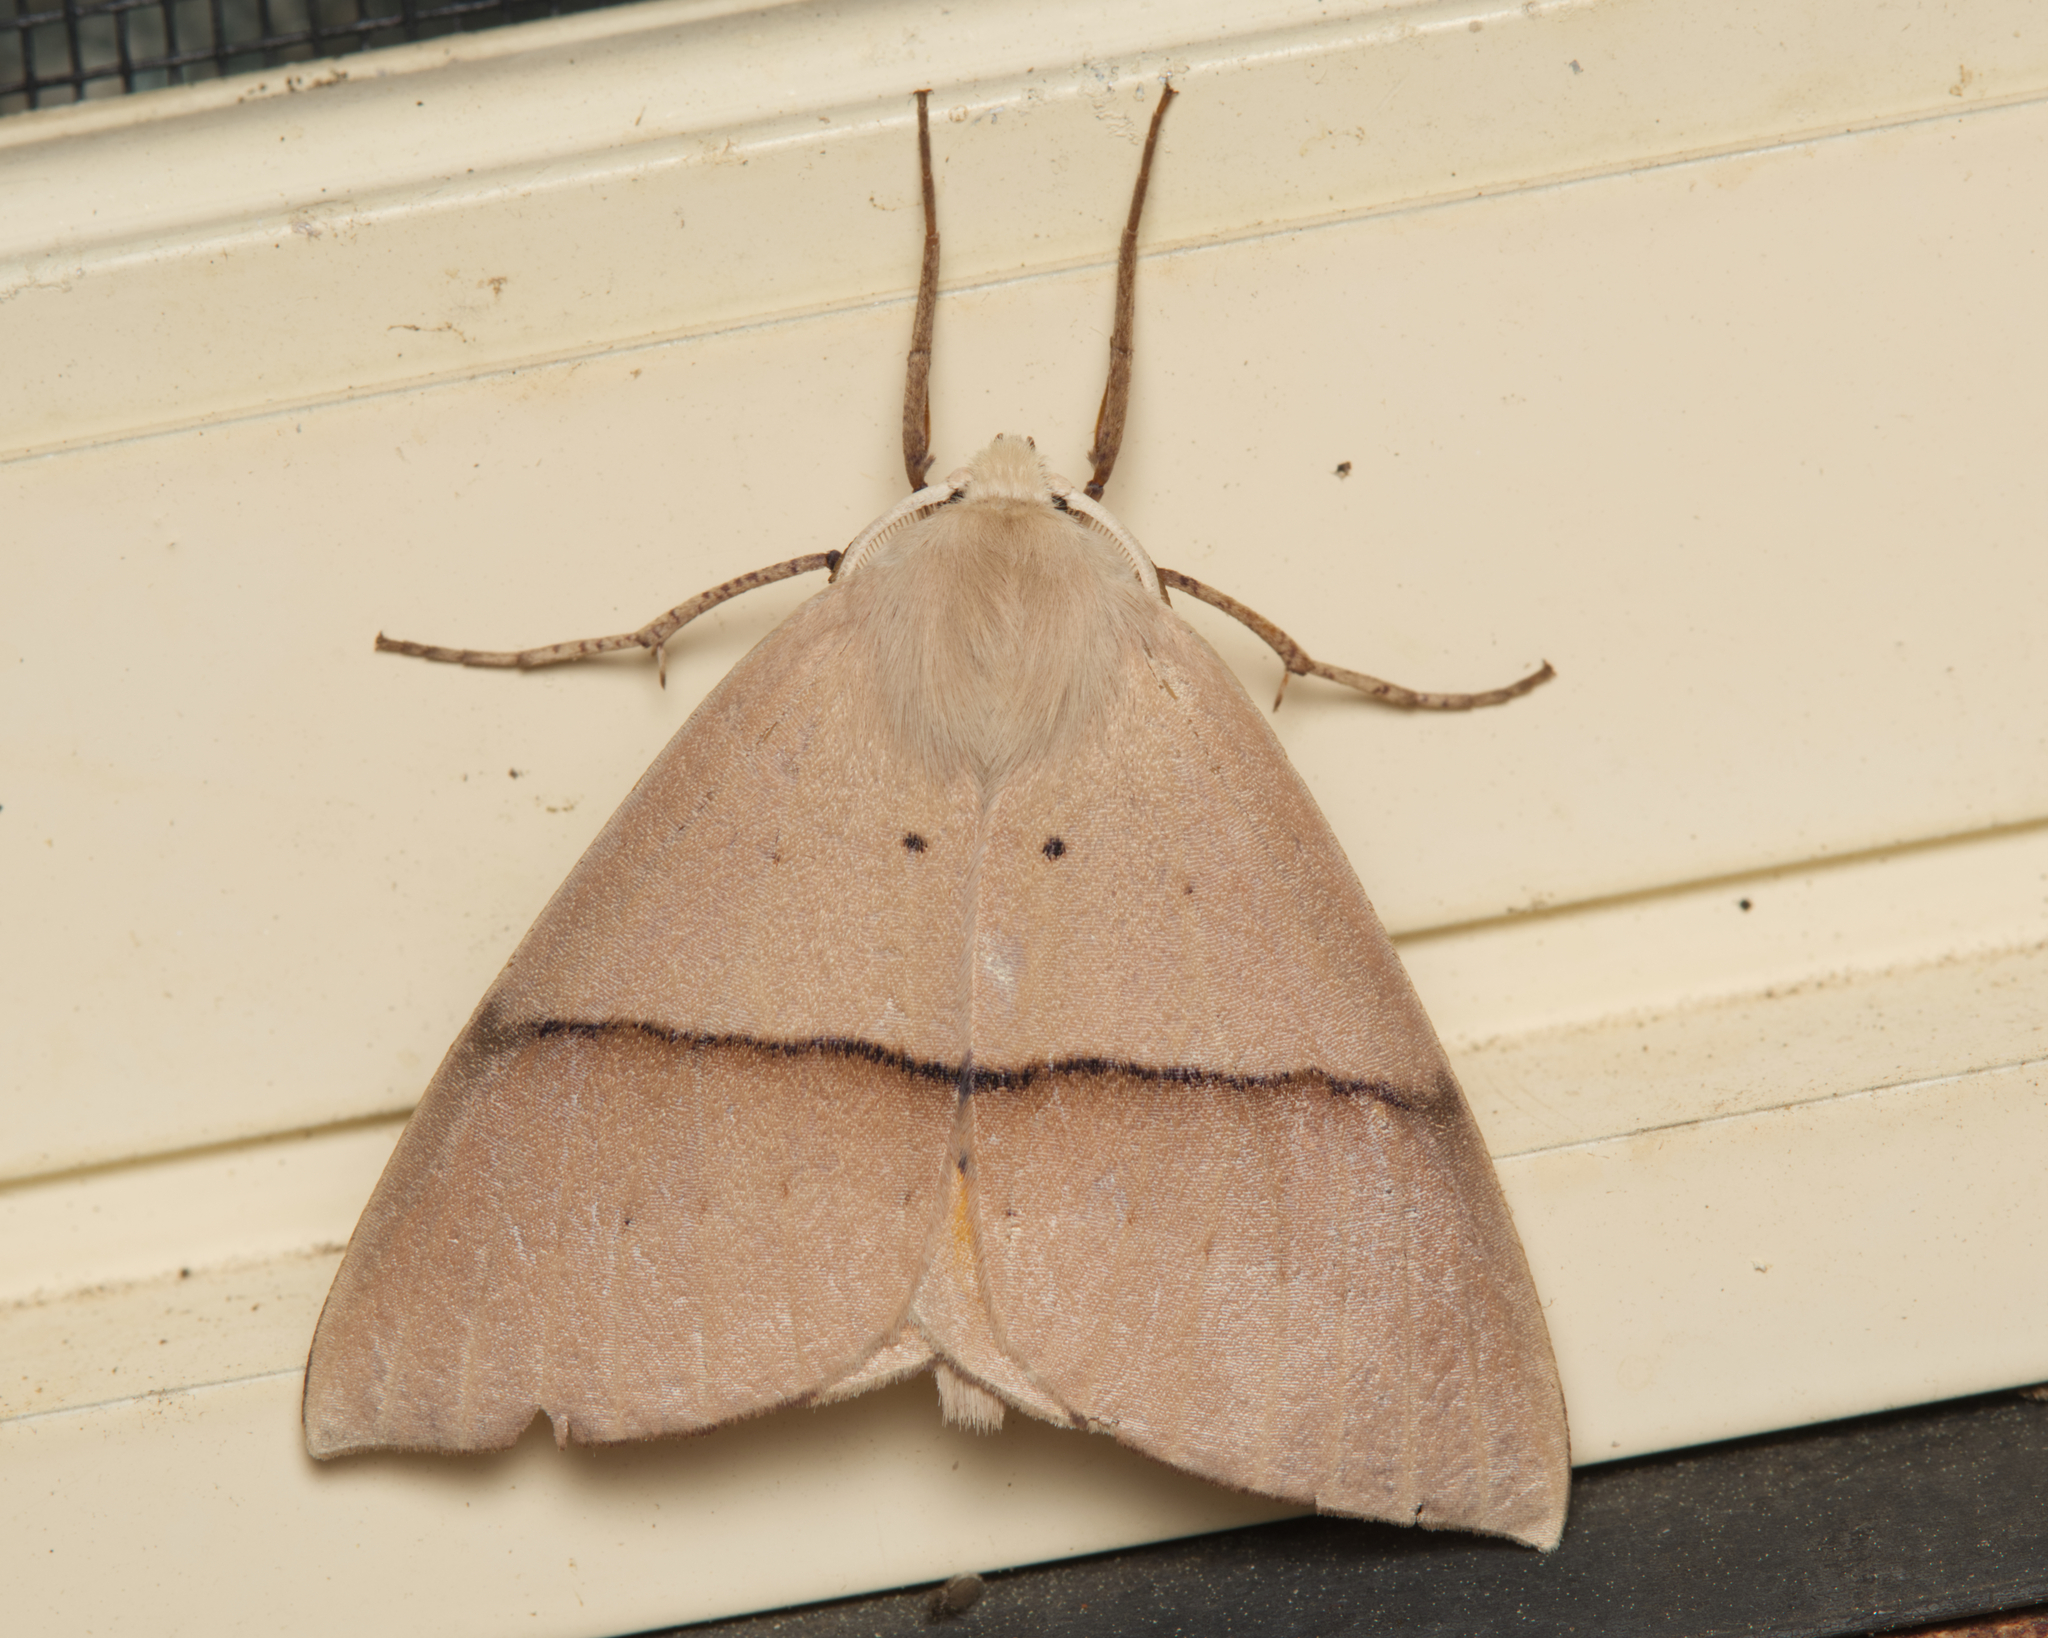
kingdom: Animalia
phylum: Arthropoda
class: Insecta
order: Lepidoptera
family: Geometridae
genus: Gastrophora
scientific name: Gastrophora henricaria
